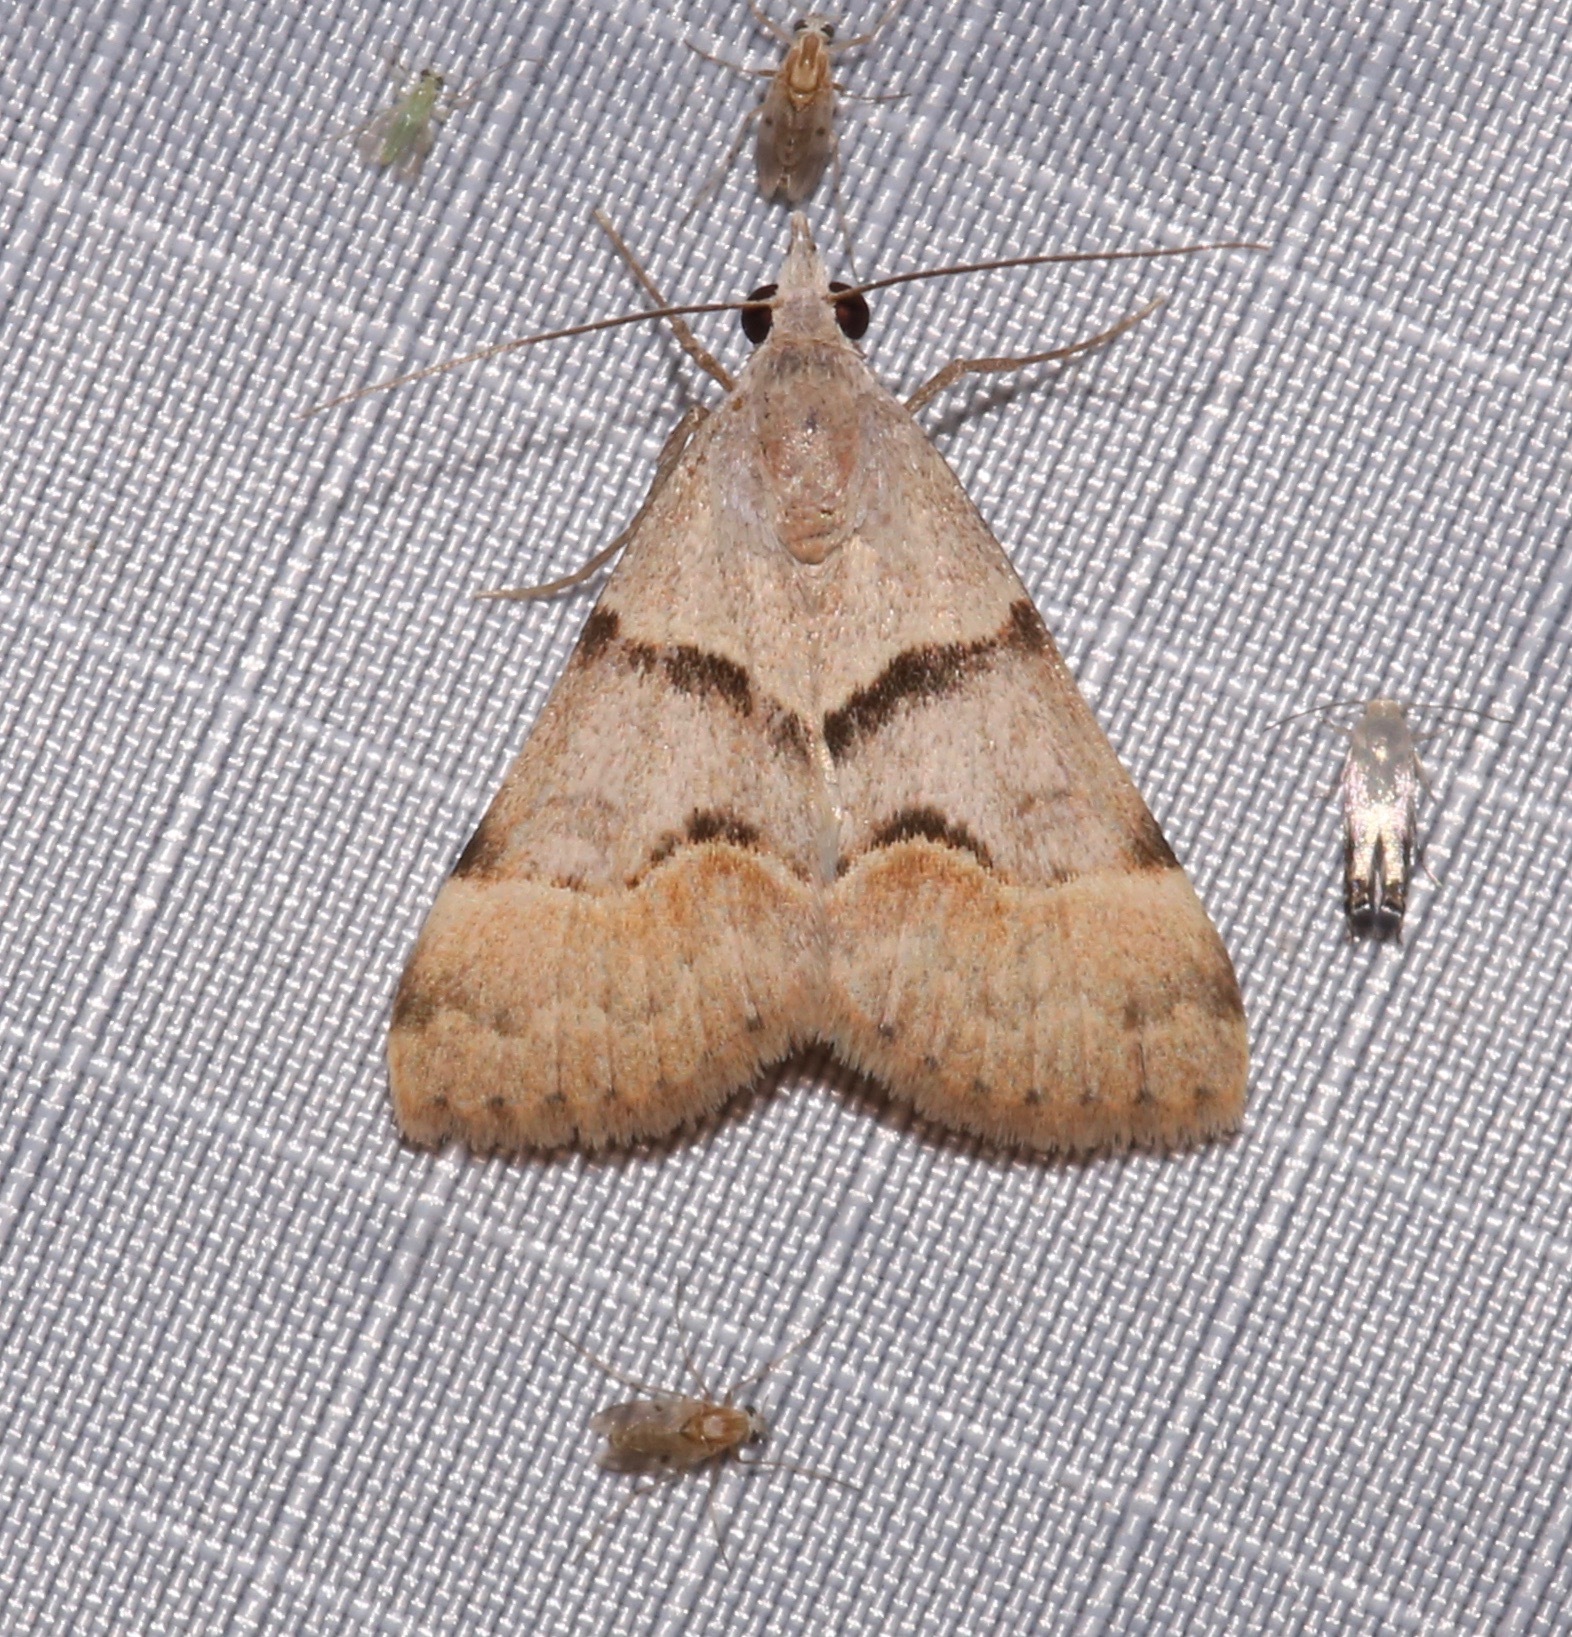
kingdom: Animalia
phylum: Arthropoda
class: Insecta
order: Lepidoptera
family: Erebidae
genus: Hemeroplanis
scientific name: Hemeroplanis incusalis
